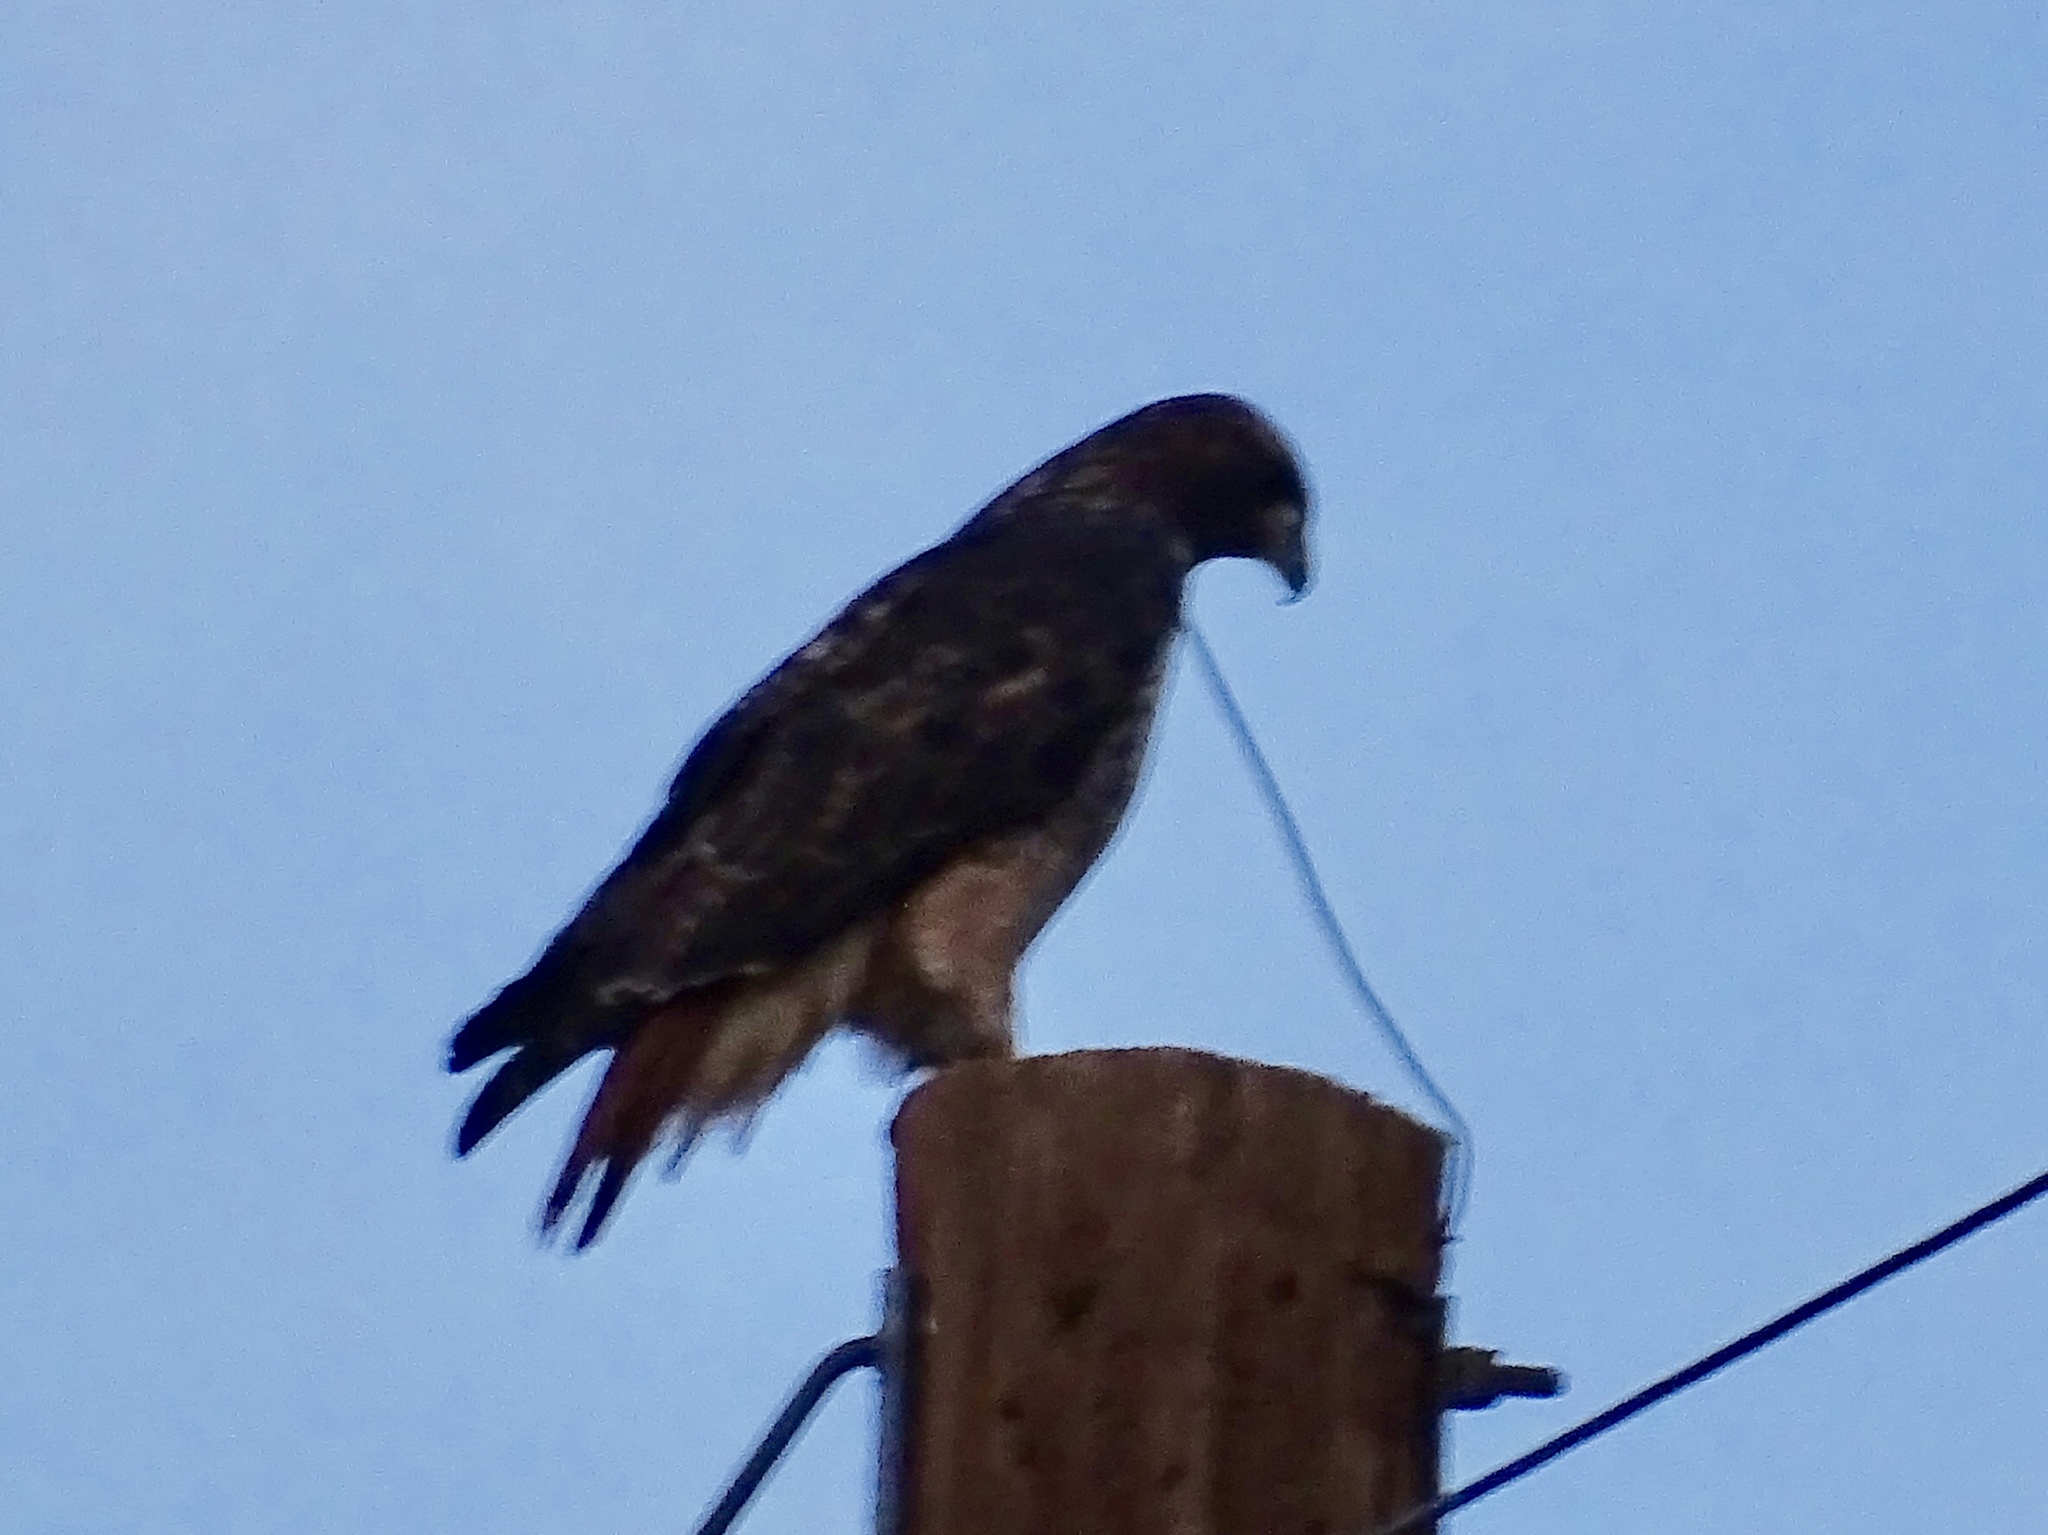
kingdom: Animalia
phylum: Chordata
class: Aves
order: Accipitriformes
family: Accipitridae
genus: Buteo
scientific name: Buteo jamaicensis
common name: Red-tailed hawk
